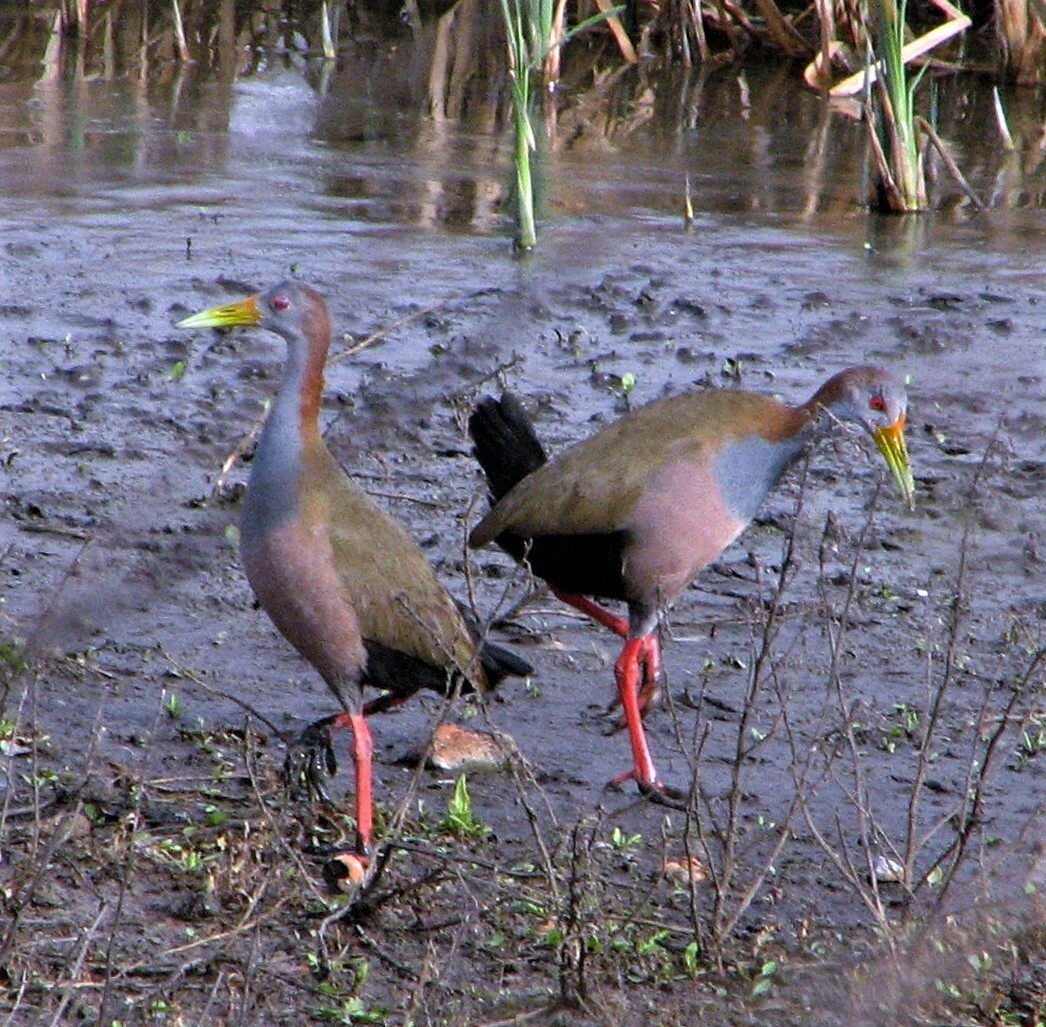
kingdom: Animalia
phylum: Chordata
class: Aves
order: Gruiformes
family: Rallidae
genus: Aramides
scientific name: Aramides ypecaha
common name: Giant wood rail
